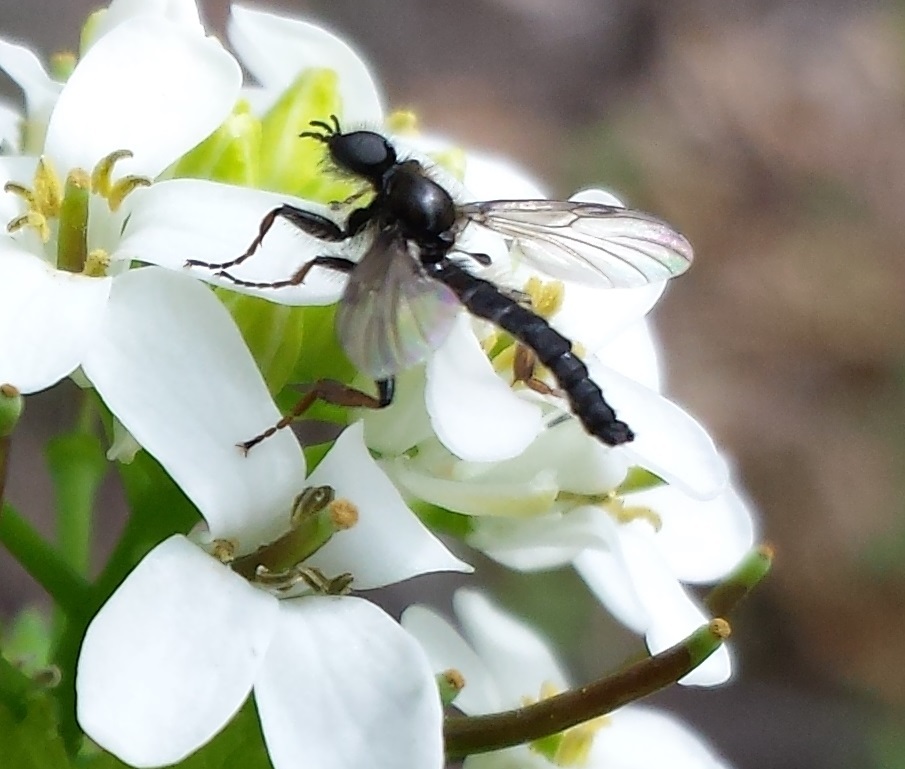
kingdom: Animalia
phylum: Arthropoda
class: Insecta
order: Diptera
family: Bibionidae
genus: Bibio
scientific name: Bibio lanigerus
